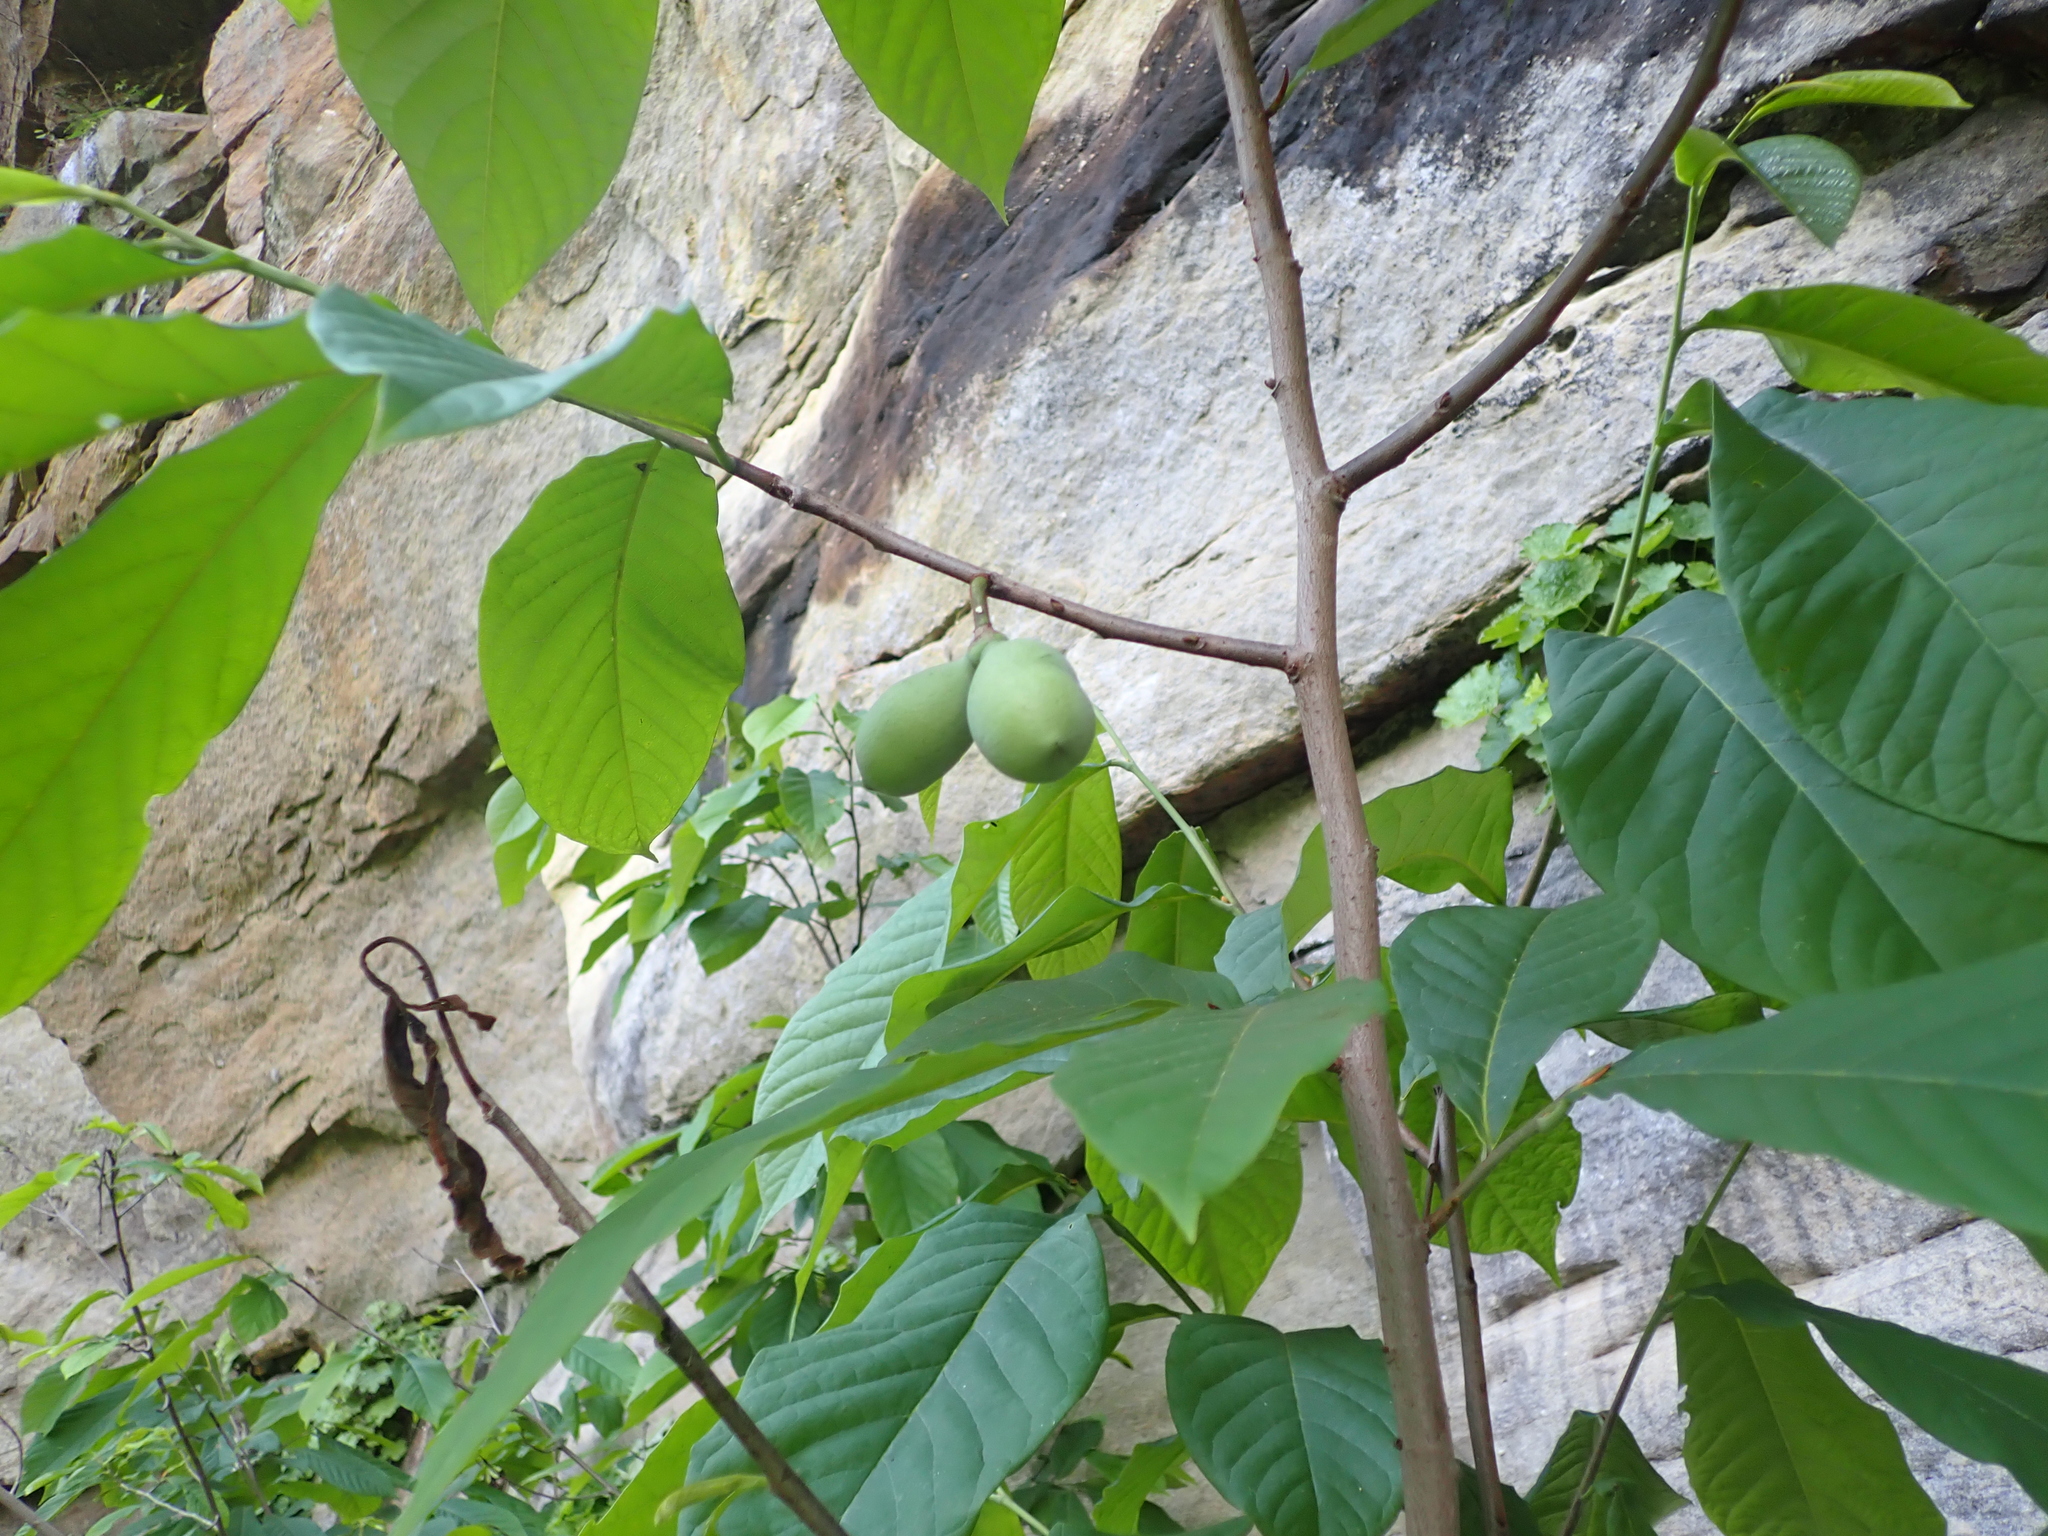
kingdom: Plantae
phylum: Tracheophyta
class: Magnoliopsida
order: Magnoliales
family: Annonaceae
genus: Asimina
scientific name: Asimina triloba
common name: Dog-banana
